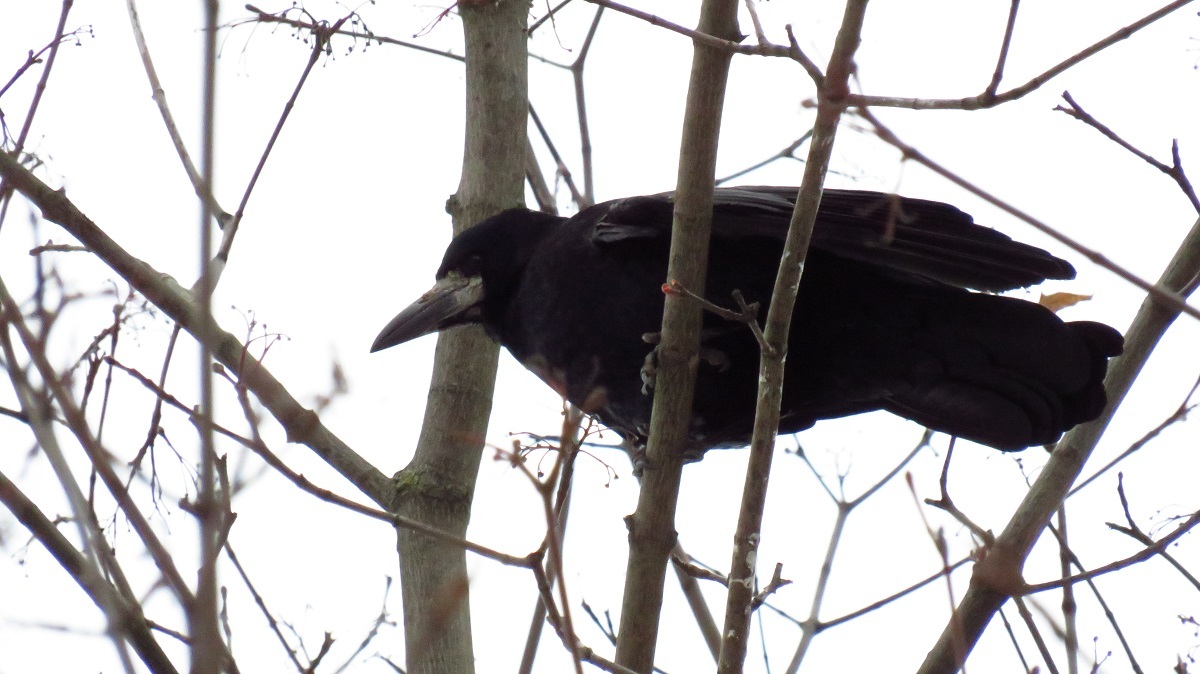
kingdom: Animalia
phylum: Chordata
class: Aves
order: Passeriformes
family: Corvidae
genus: Corvus
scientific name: Corvus frugilegus
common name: Rook
